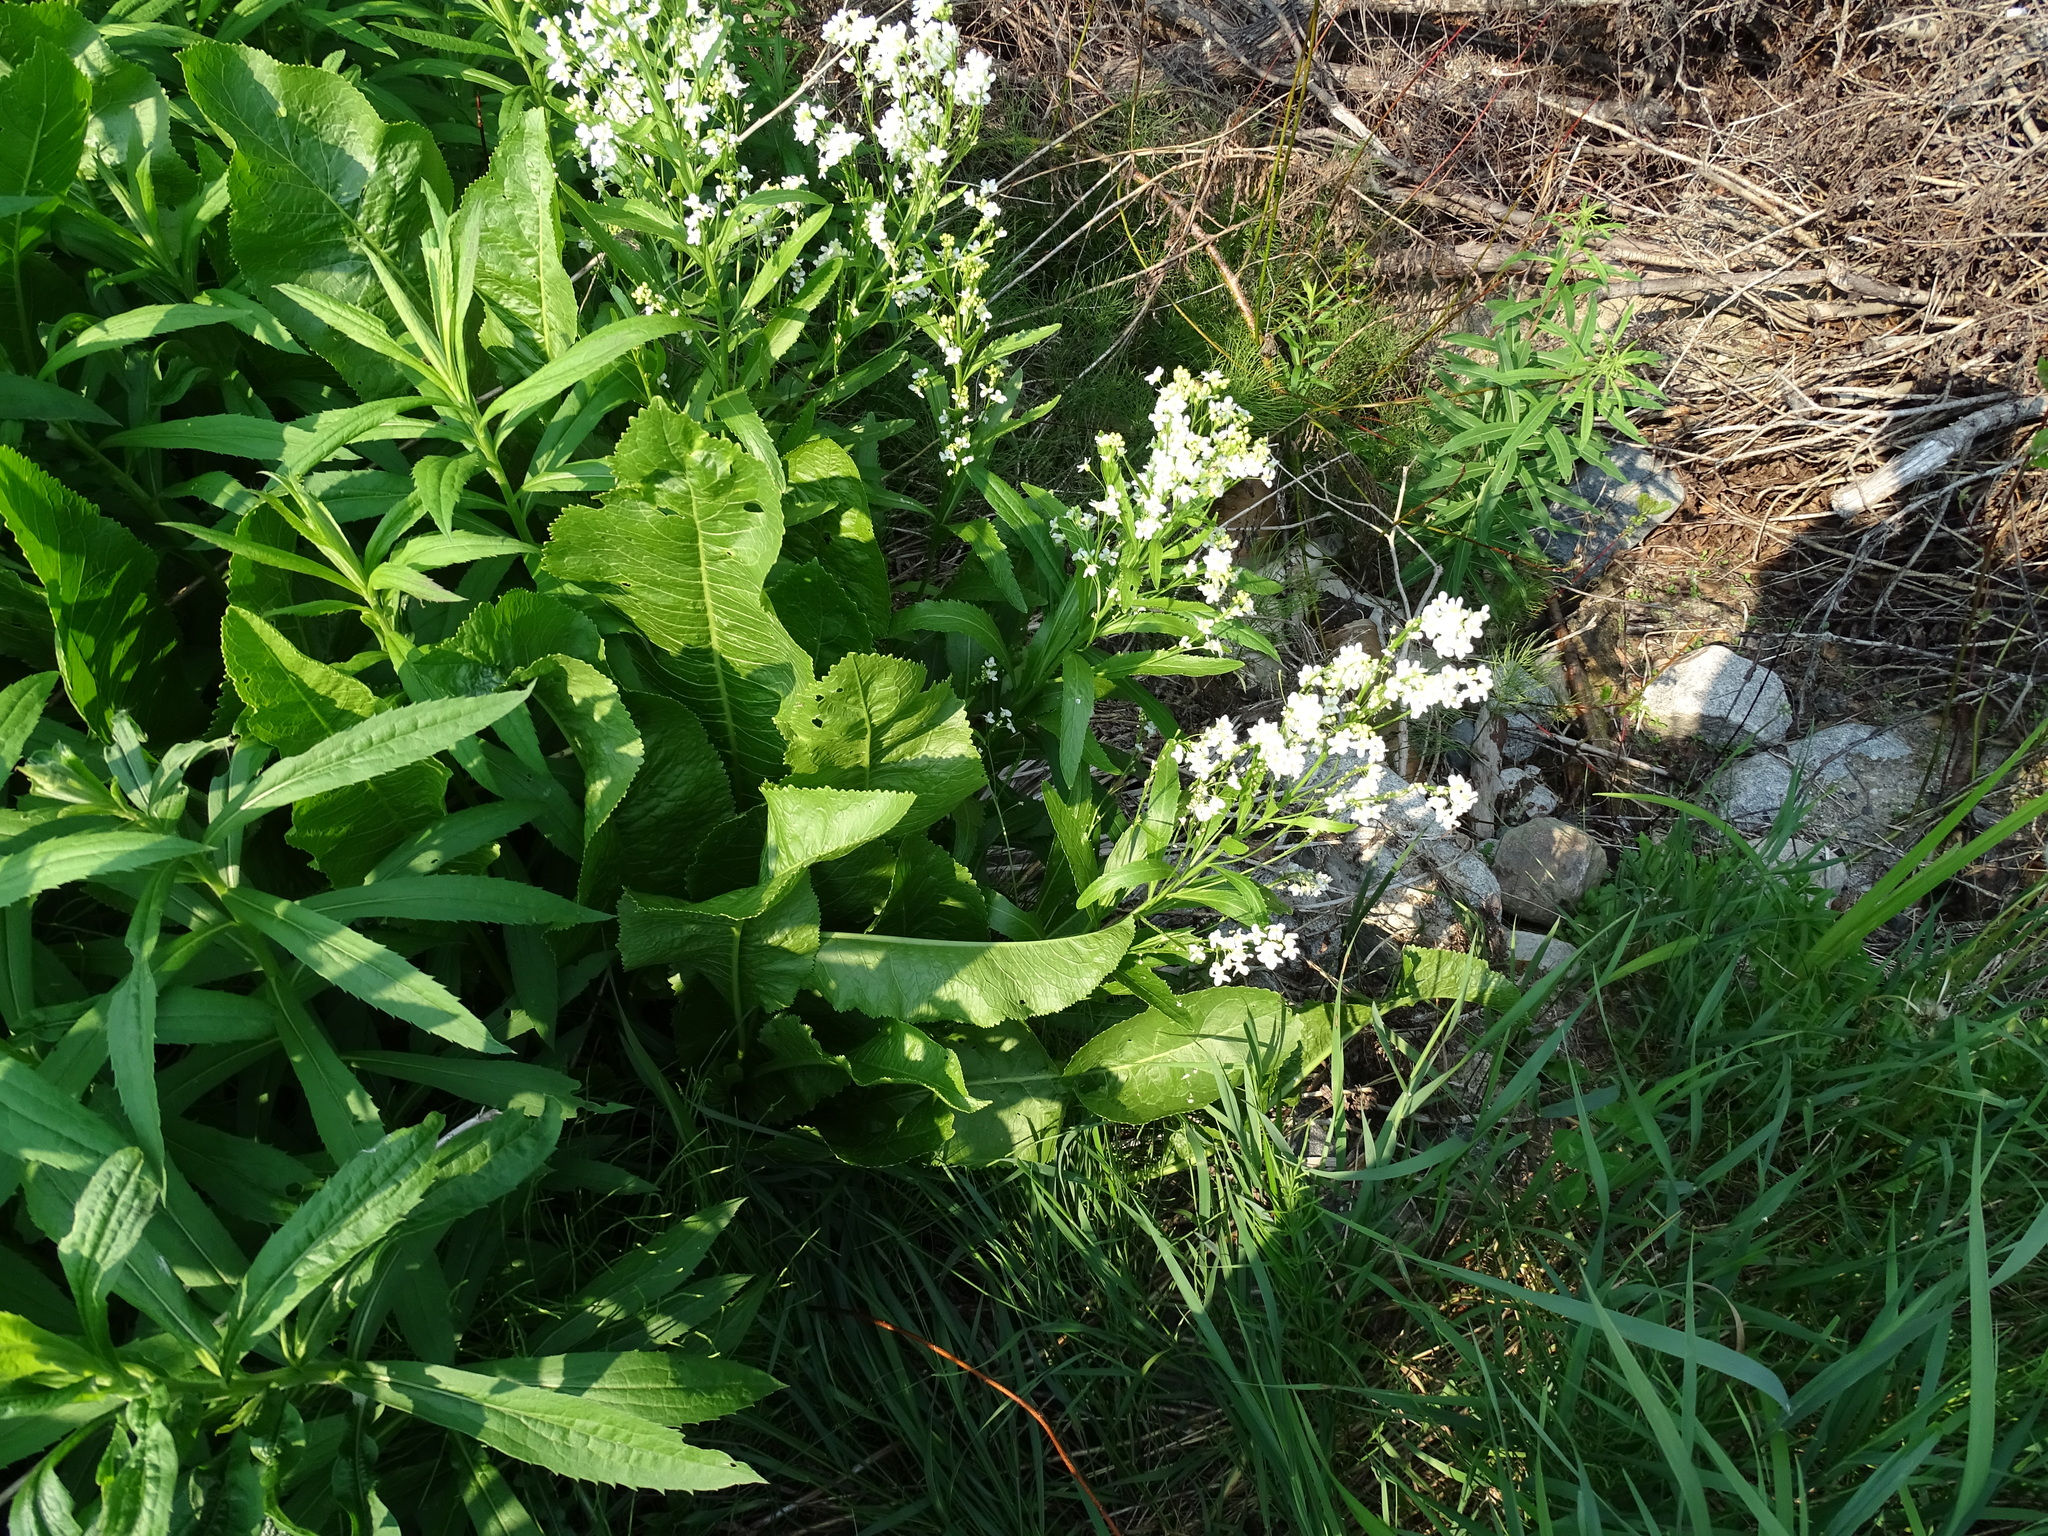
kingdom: Plantae
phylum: Tracheophyta
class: Magnoliopsida
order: Brassicales
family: Brassicaceae
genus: Armoracia
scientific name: Armoracia rusticana
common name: Horseradish
